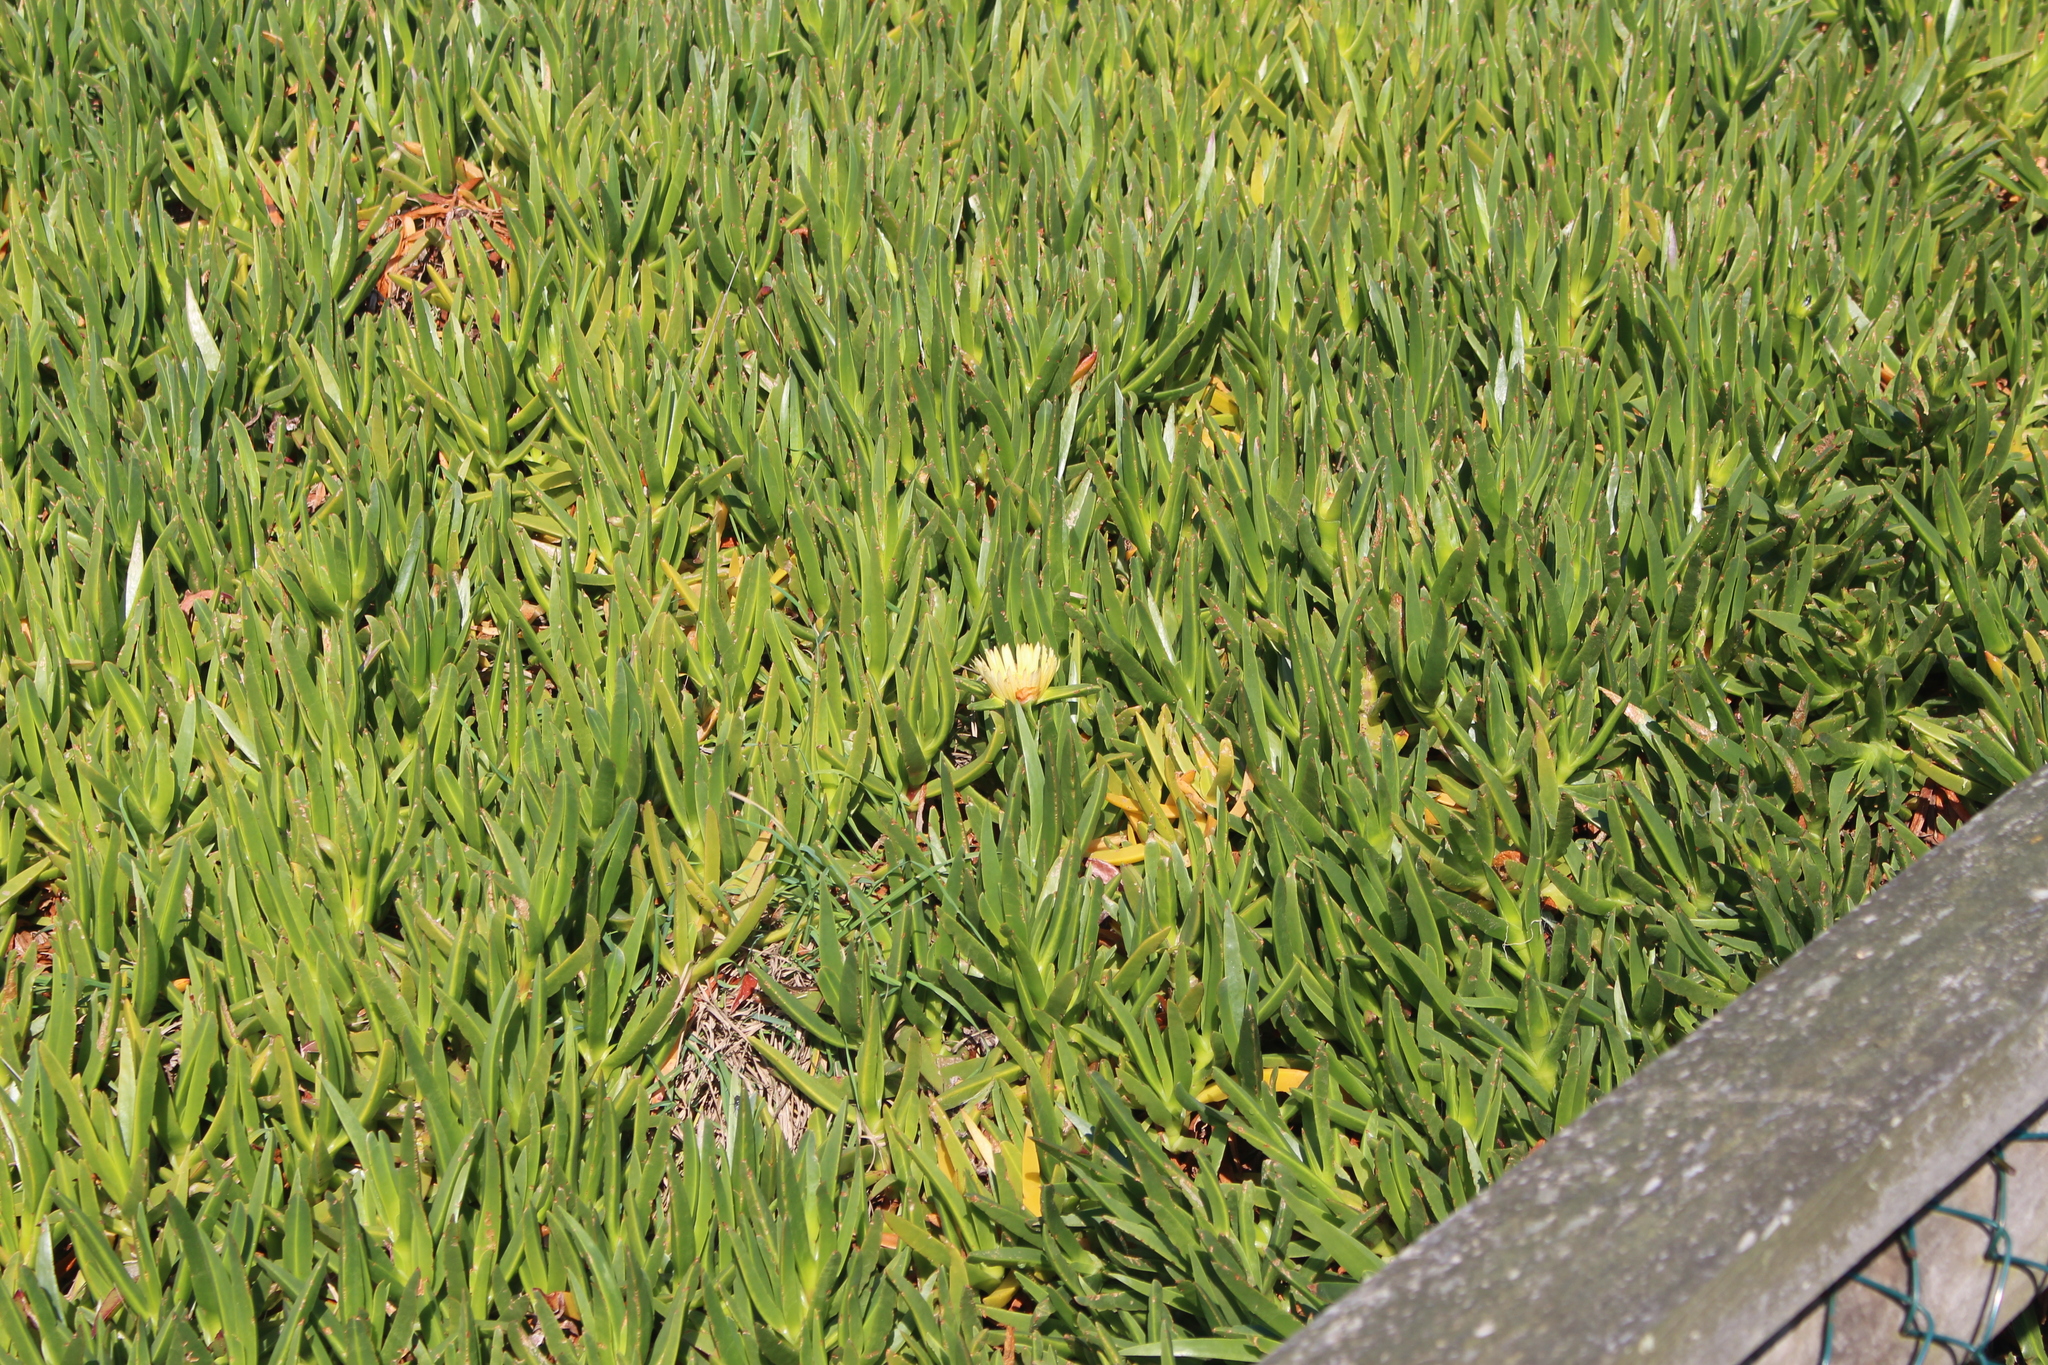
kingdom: Plantae
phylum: Tracheophyta
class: Magnoliopsida
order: Caryophyllales
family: Aizoaceae
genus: Carpobrotus
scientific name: Carpobrotus edulis
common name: Hottentot-fig
